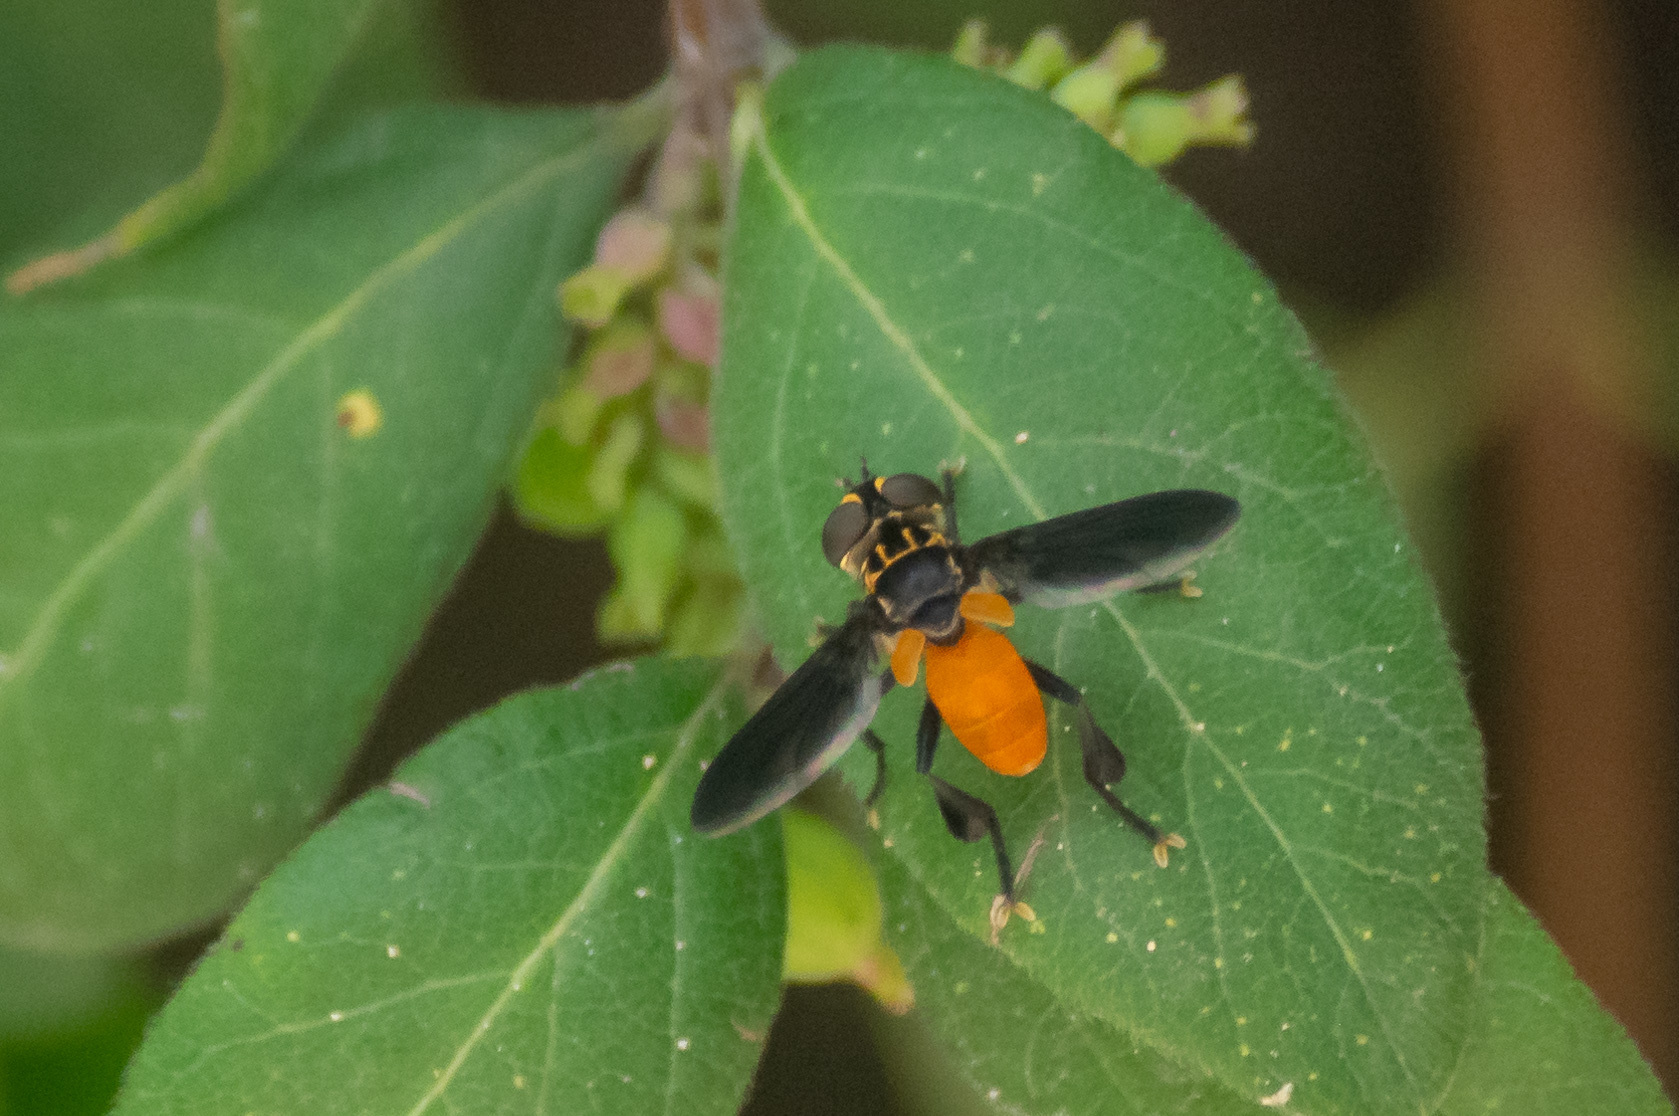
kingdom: Animalia
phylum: Arthropoda
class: Insecta
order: Diptera
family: Tachinidae
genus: Trichopoda
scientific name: Trichopoda pennipes
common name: Tachinid fly
